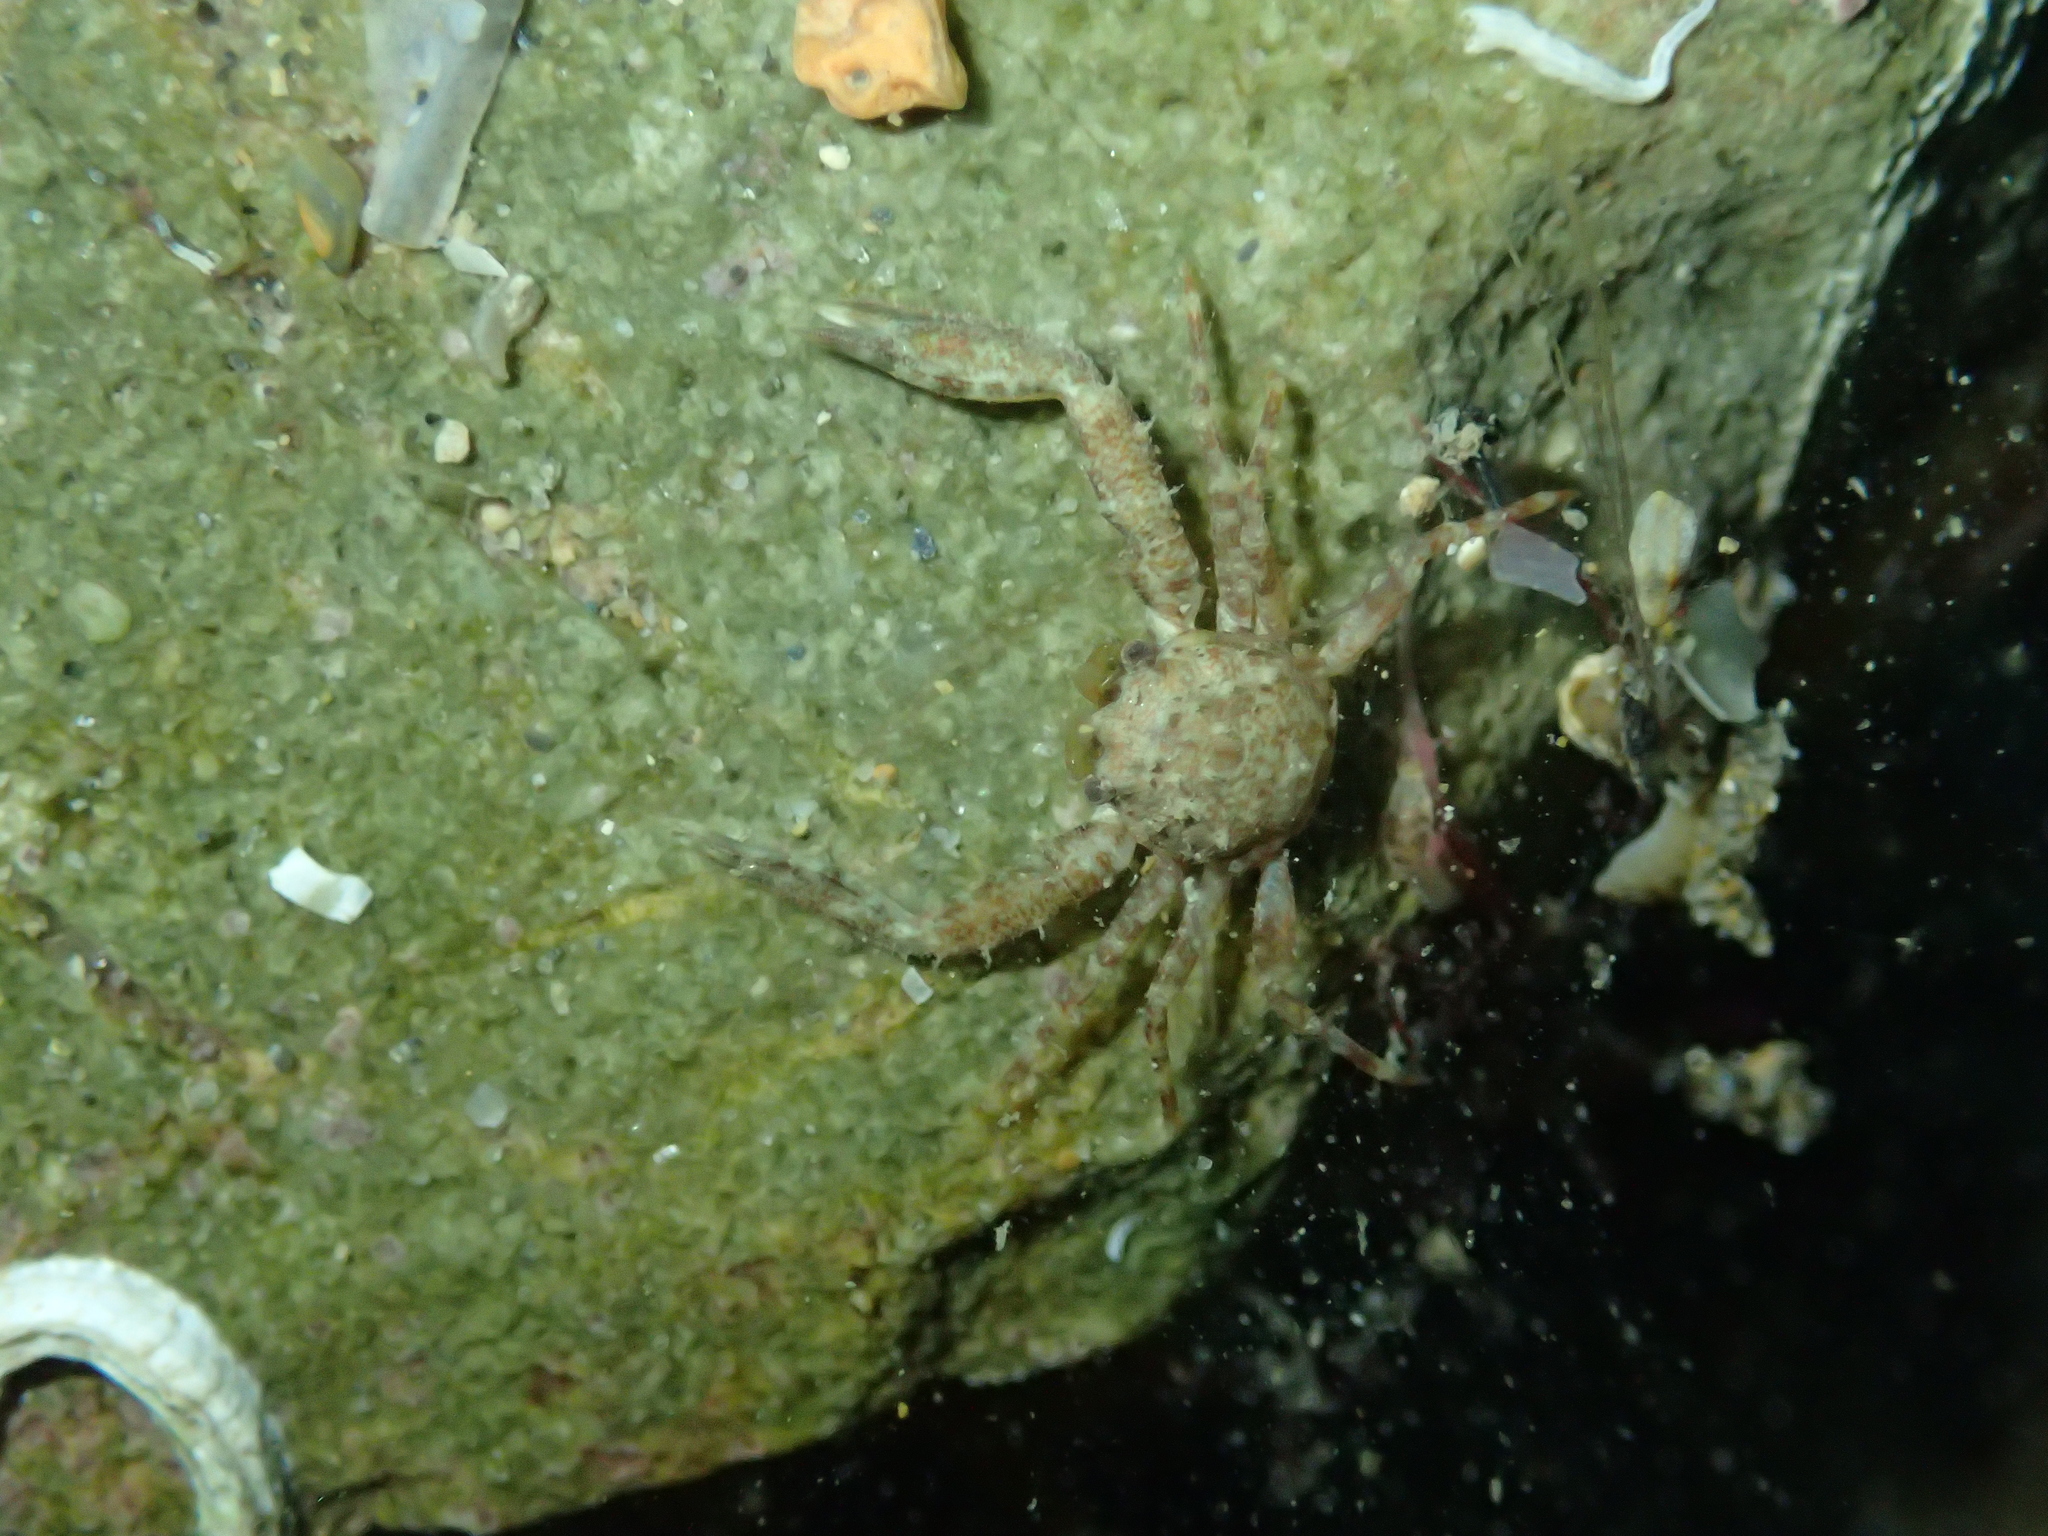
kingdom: Animalia
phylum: Arthropoda
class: Malacostraca
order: Decapoda
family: Porcellanidae
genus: Pisidia
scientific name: Pisidia bluteli
